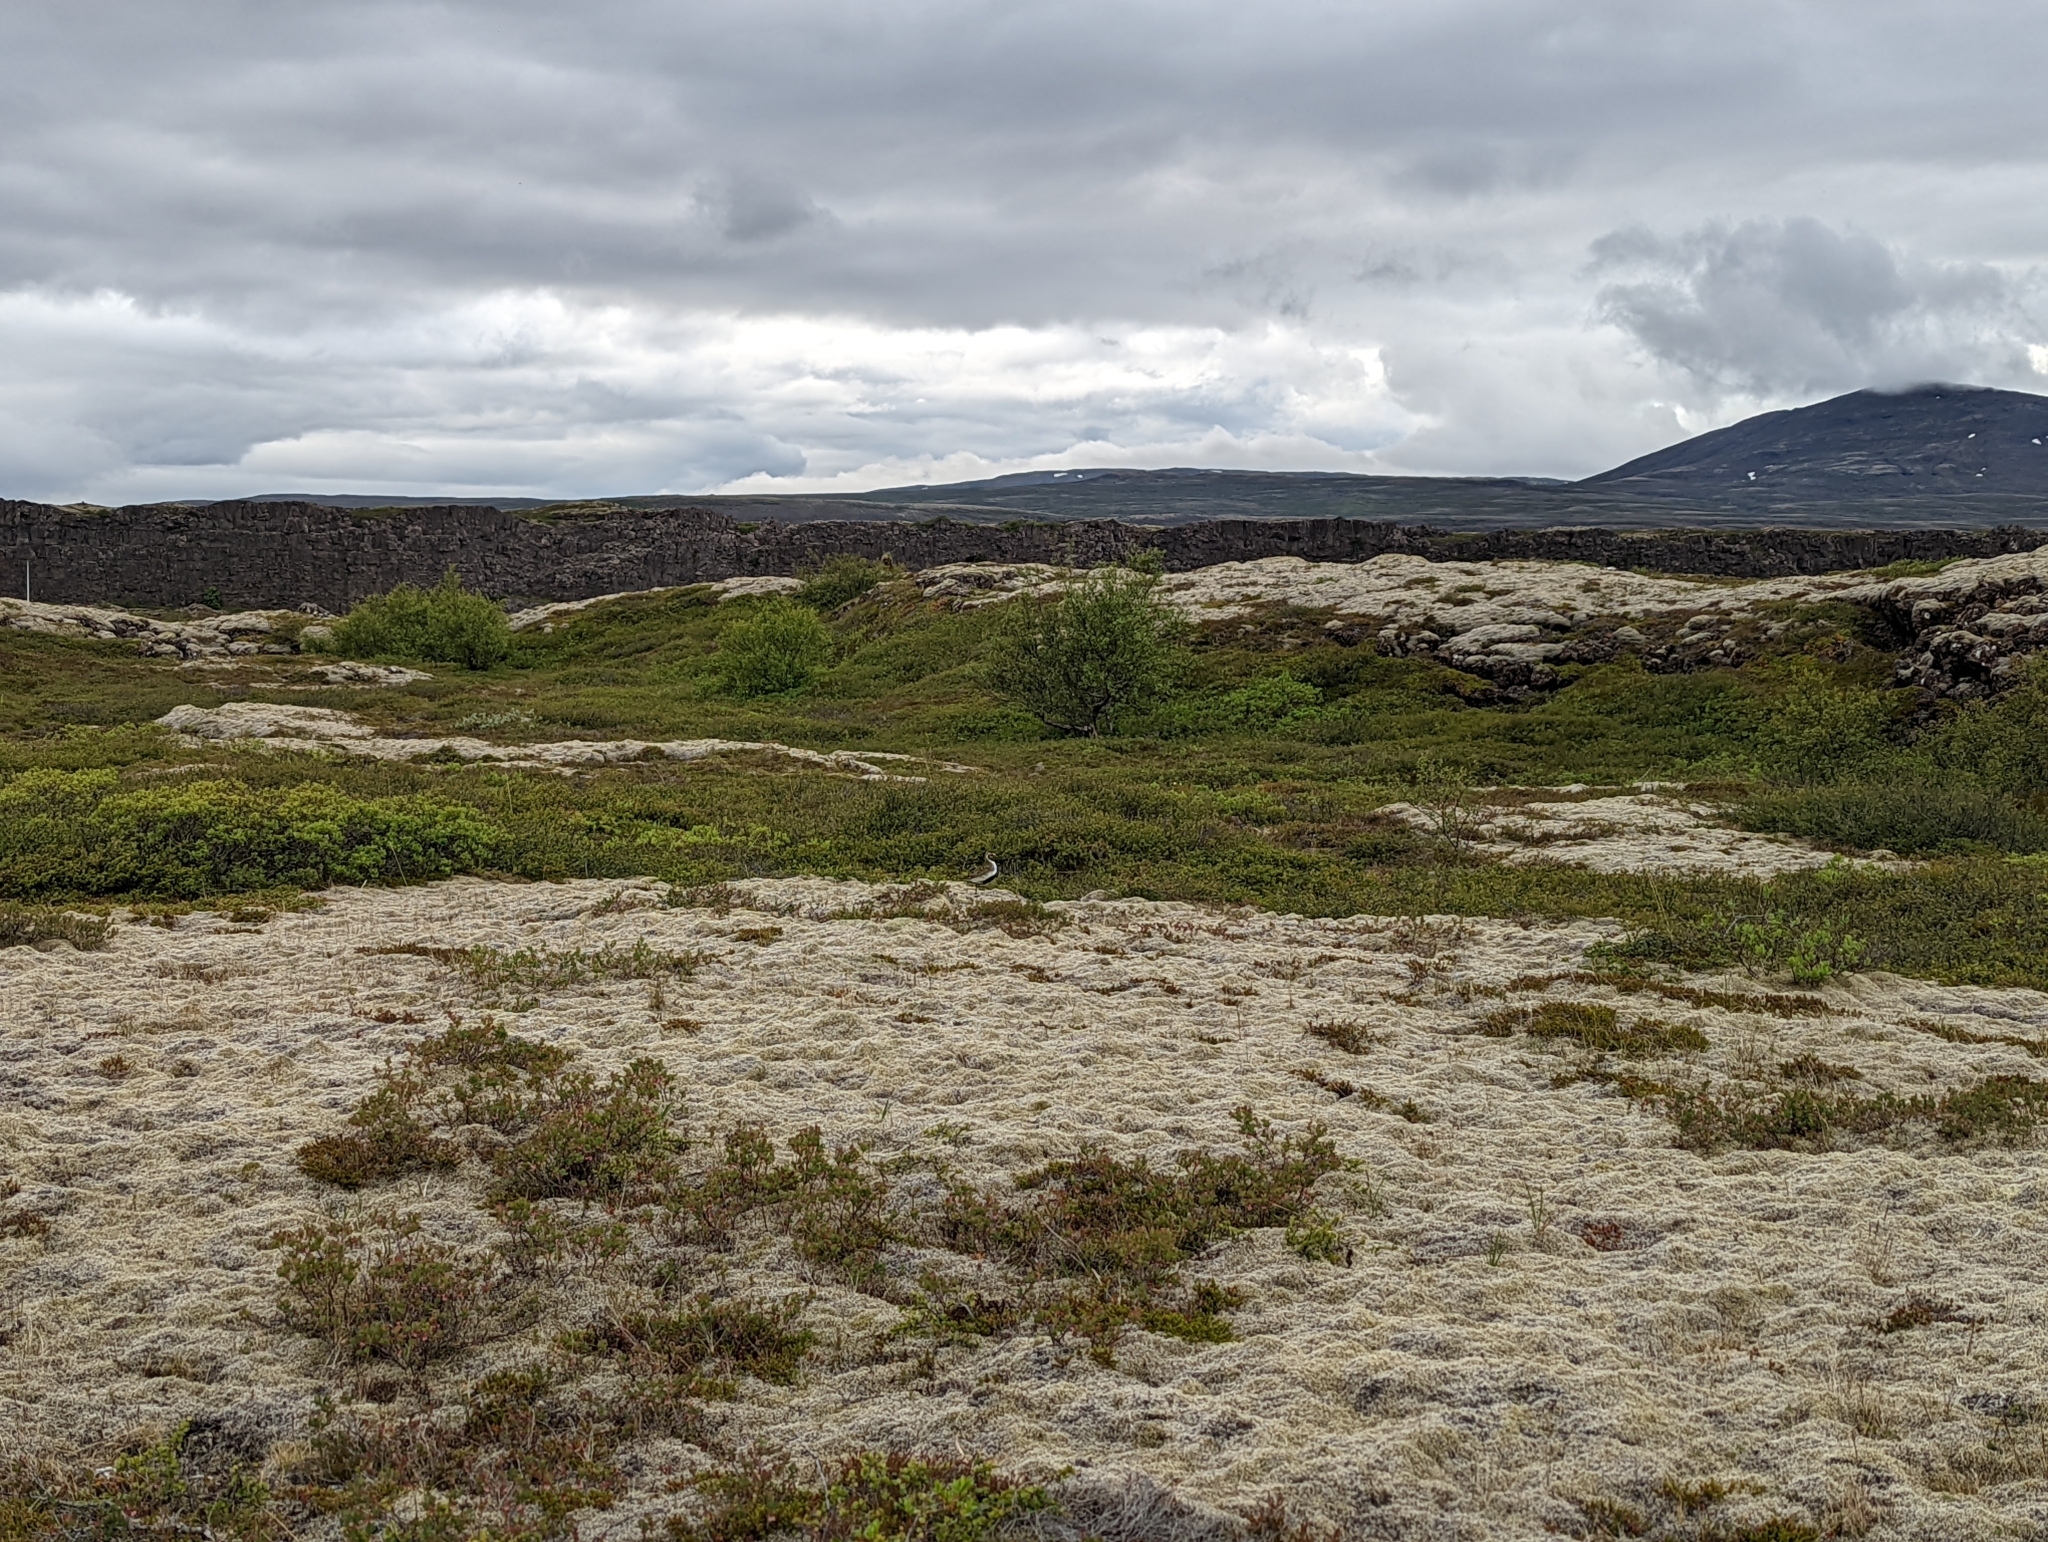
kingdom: Animalia
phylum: Chordata
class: Aves
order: Charadriiformes
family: Charadriidae
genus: Pluvialis
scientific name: Pluvialis apricaria
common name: European golden plover
